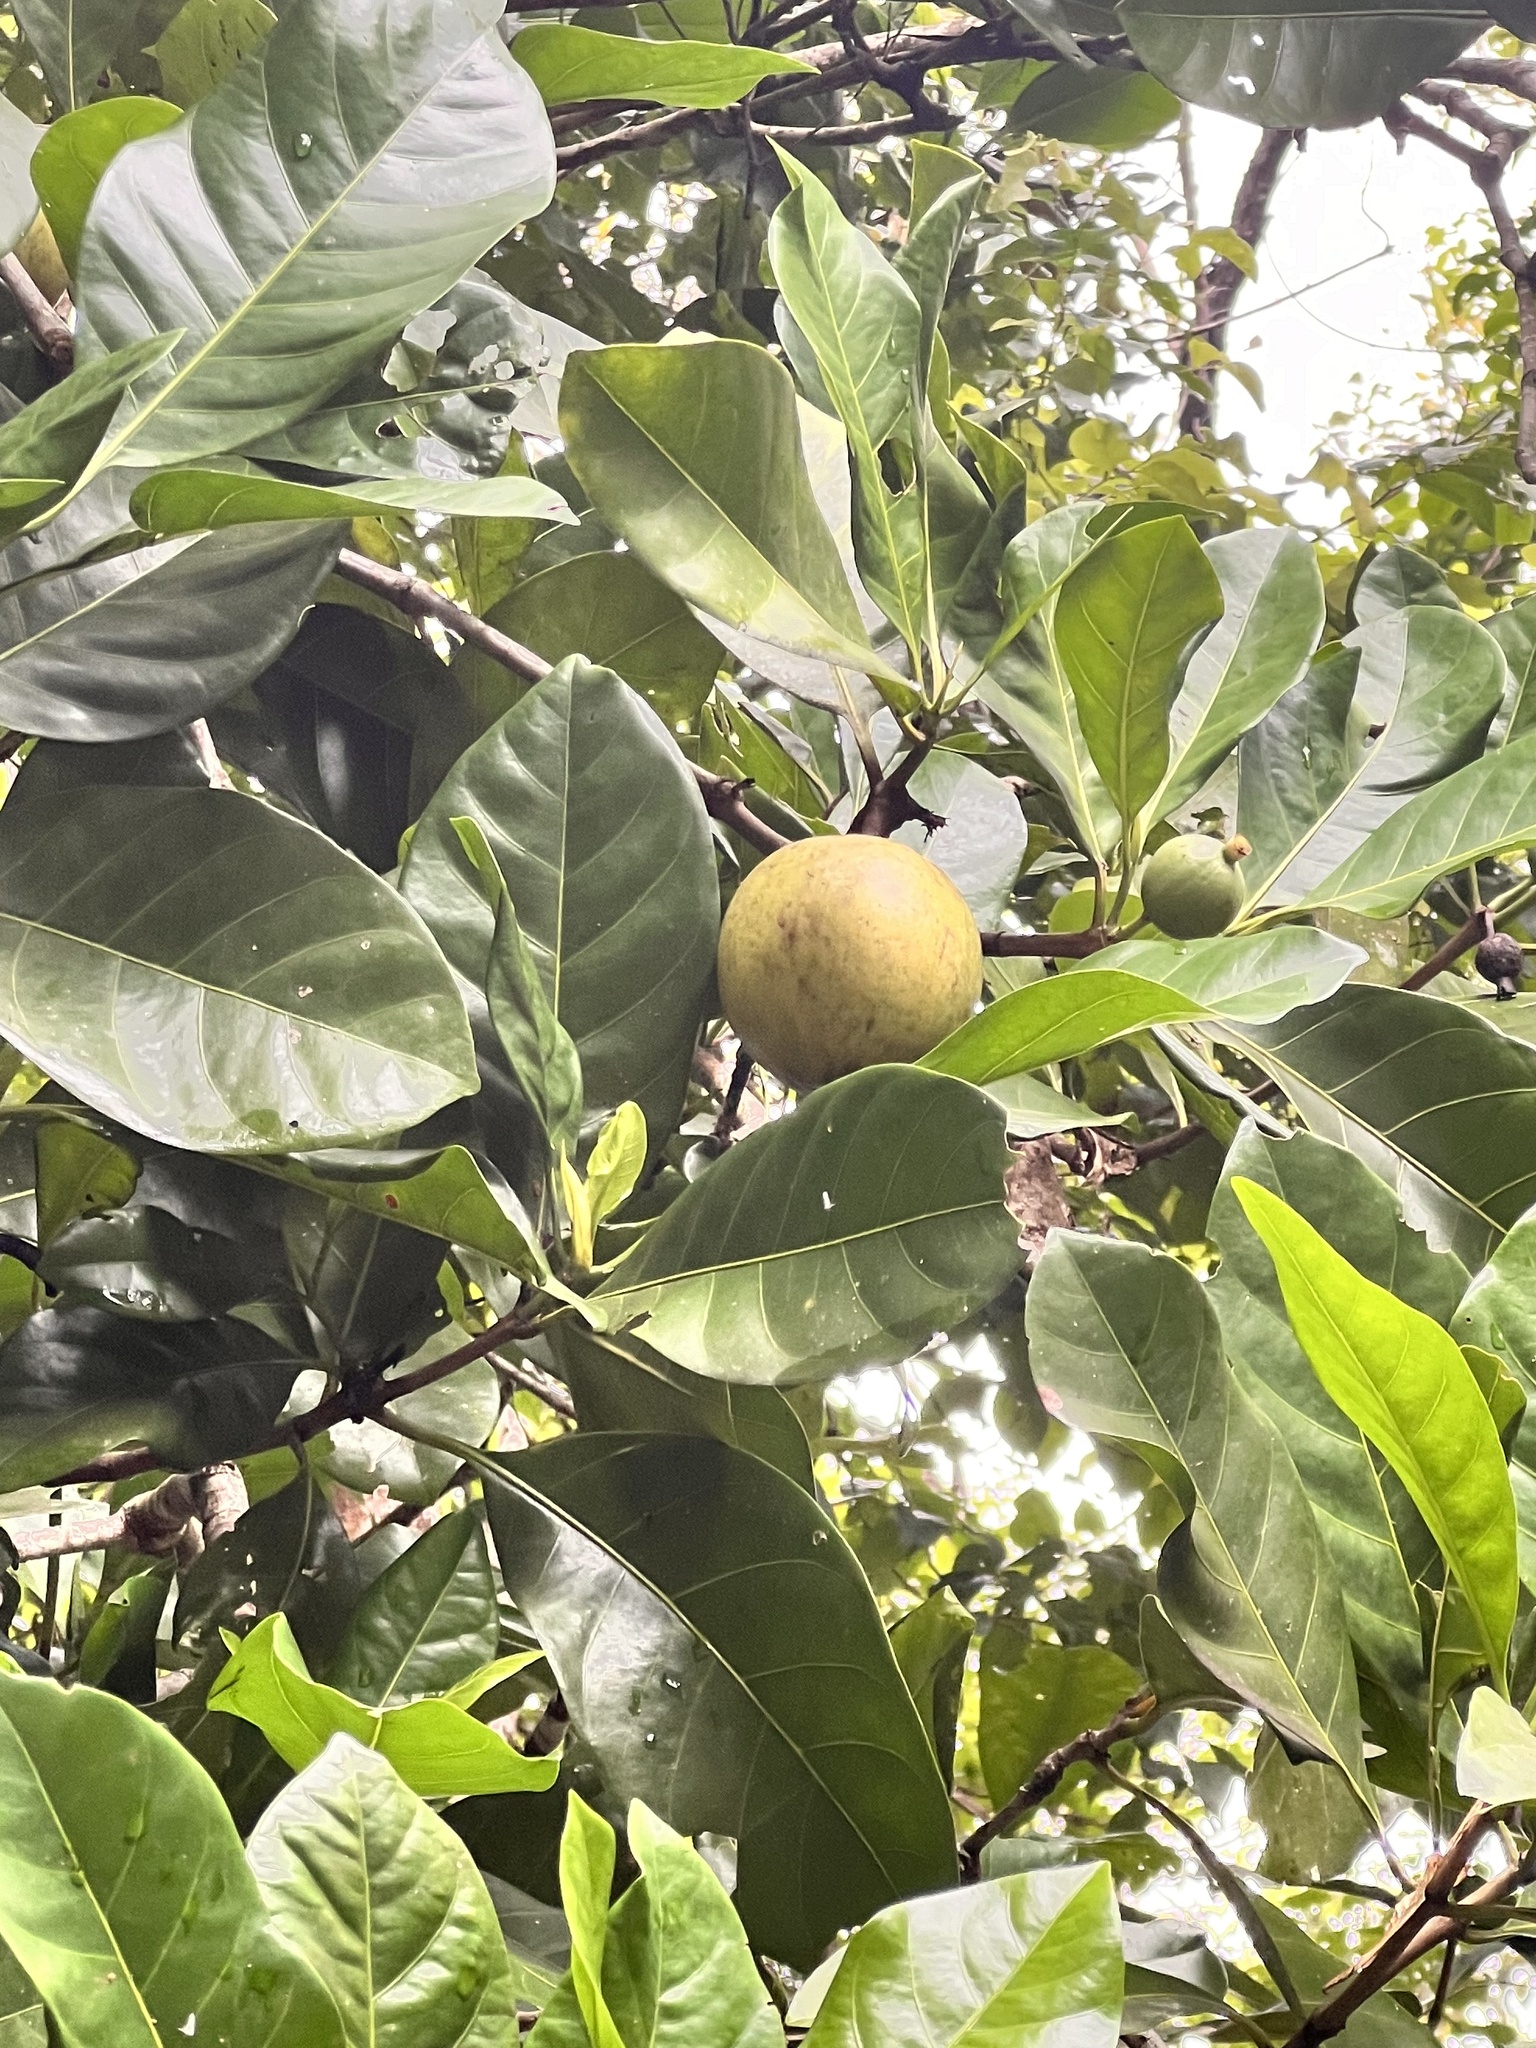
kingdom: Plantae
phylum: Tracheophyta
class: Magnoliopsida
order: Gentianales
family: Rubiaceae
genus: Atractocarpus
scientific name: Atractocarpus fitzalanii
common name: Randia
